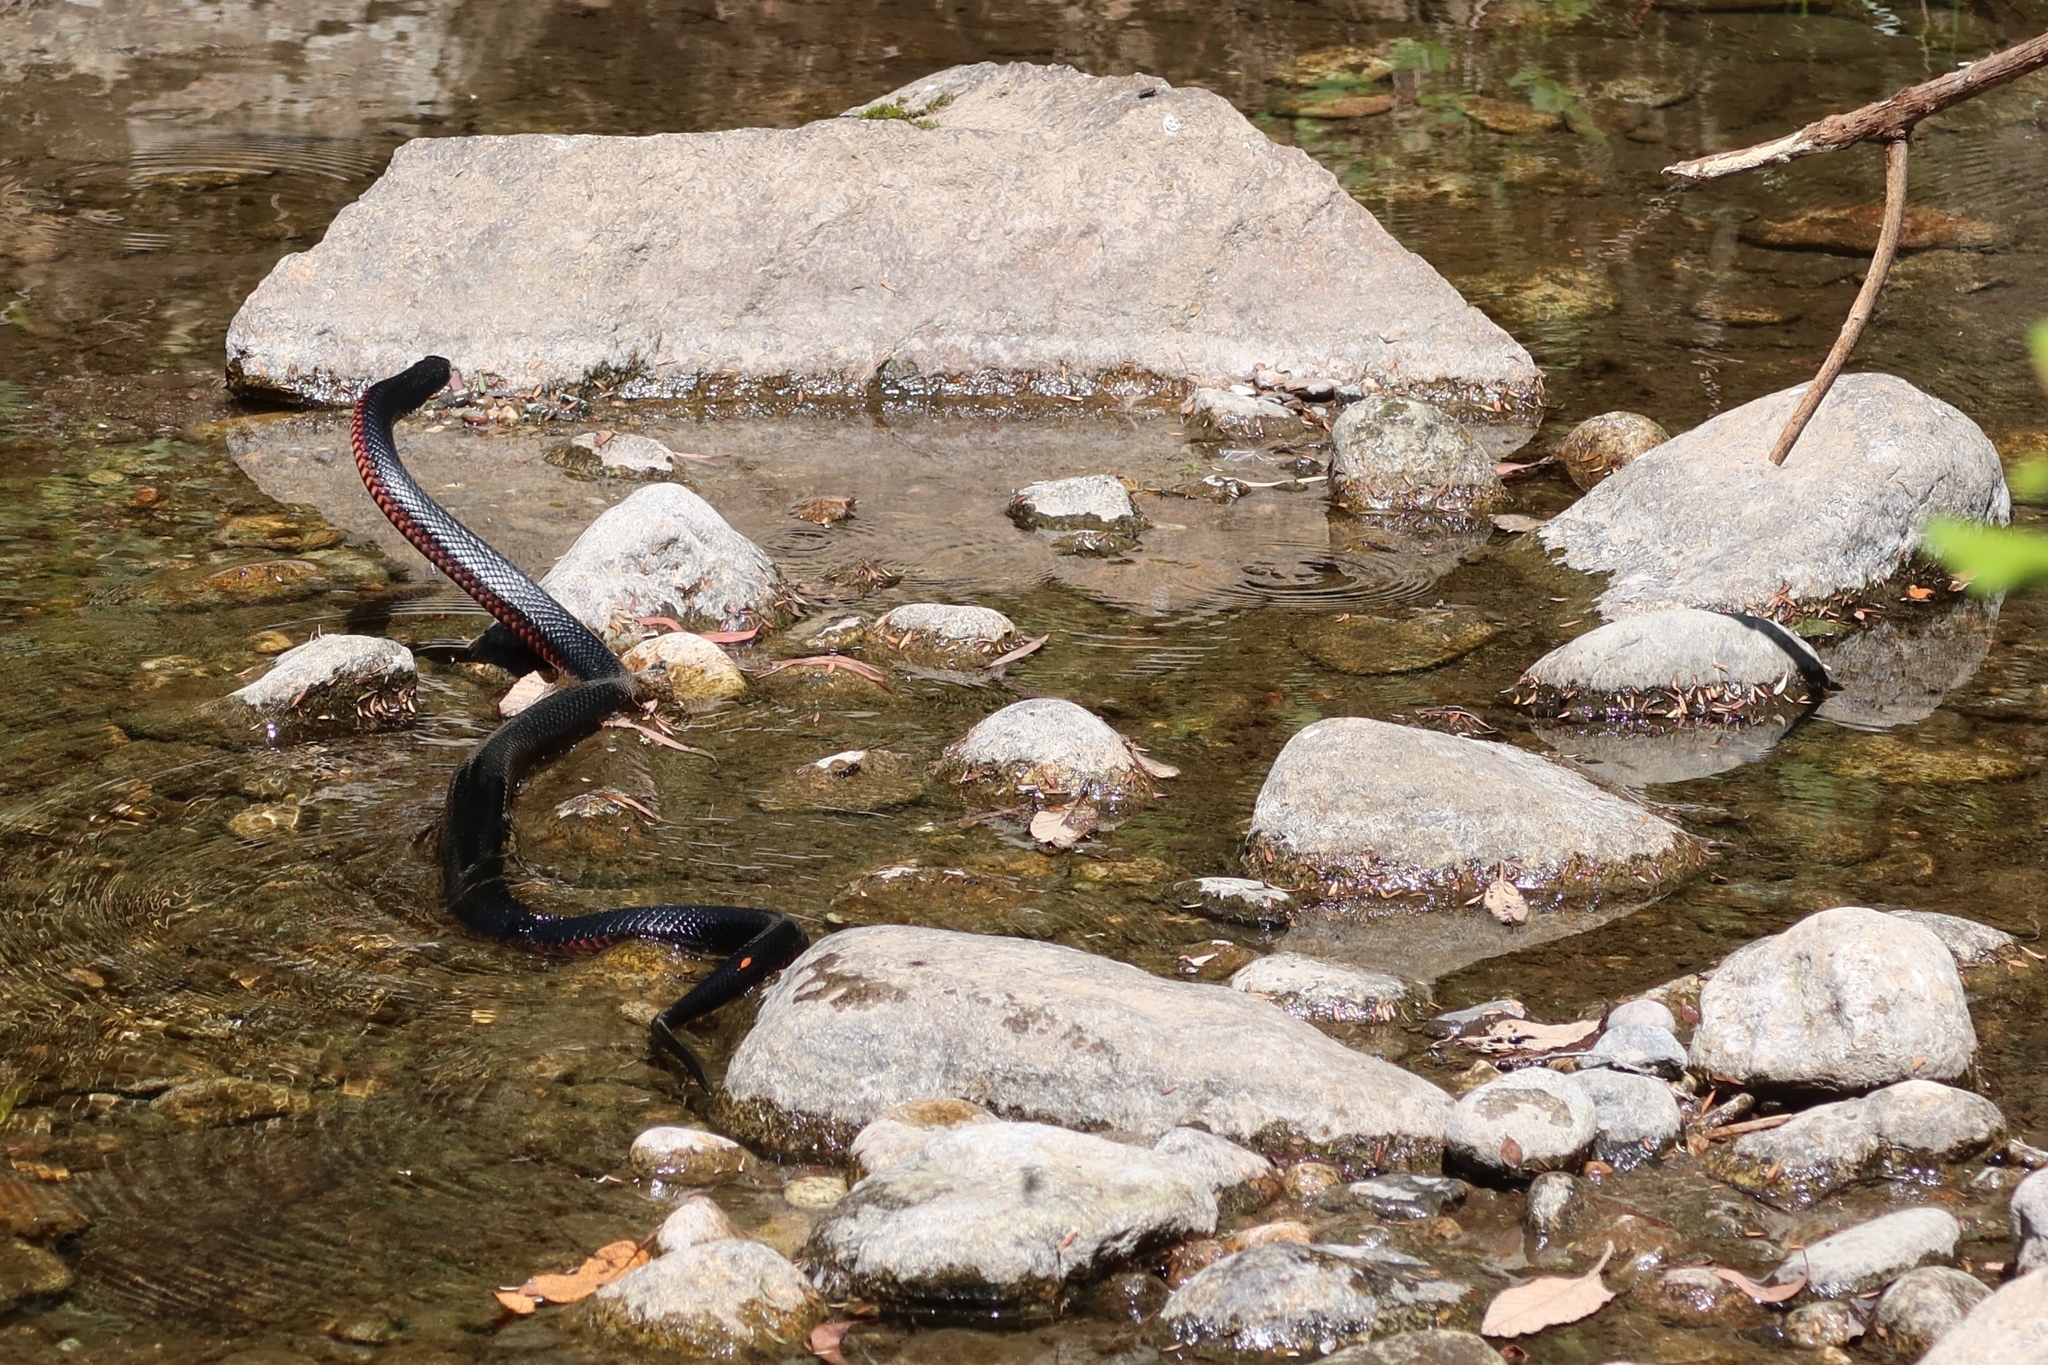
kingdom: Animalia
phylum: Chordata
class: Squamata
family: Elapidae
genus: Pseudechis
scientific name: Pseudechis porphyriacus
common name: Australian black snake
